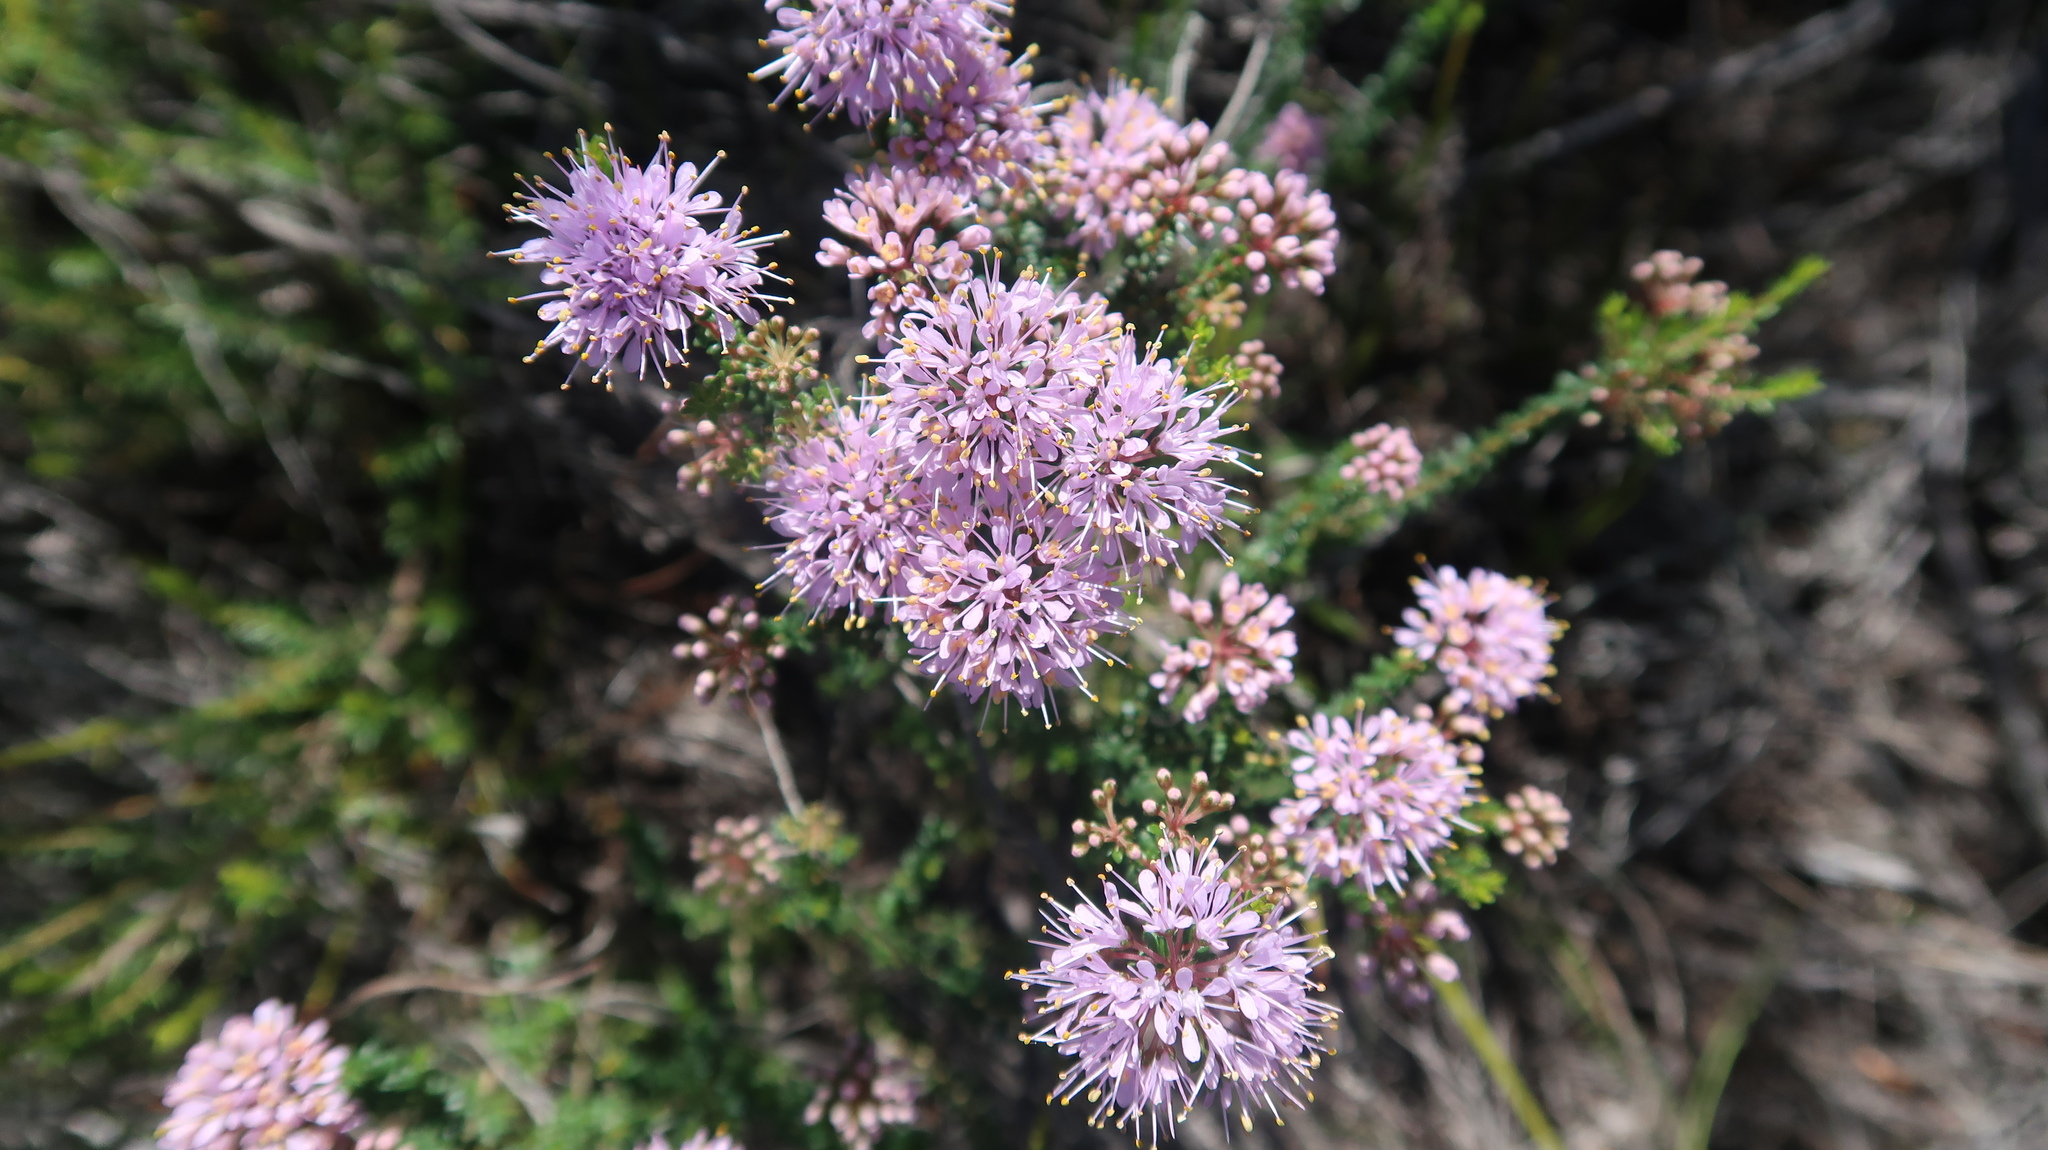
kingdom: Plantae
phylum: Tracheophyta
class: Magnoliopsida
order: Sapindales
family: Rutaceae
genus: Agathosma
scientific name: Agathosma capensis
